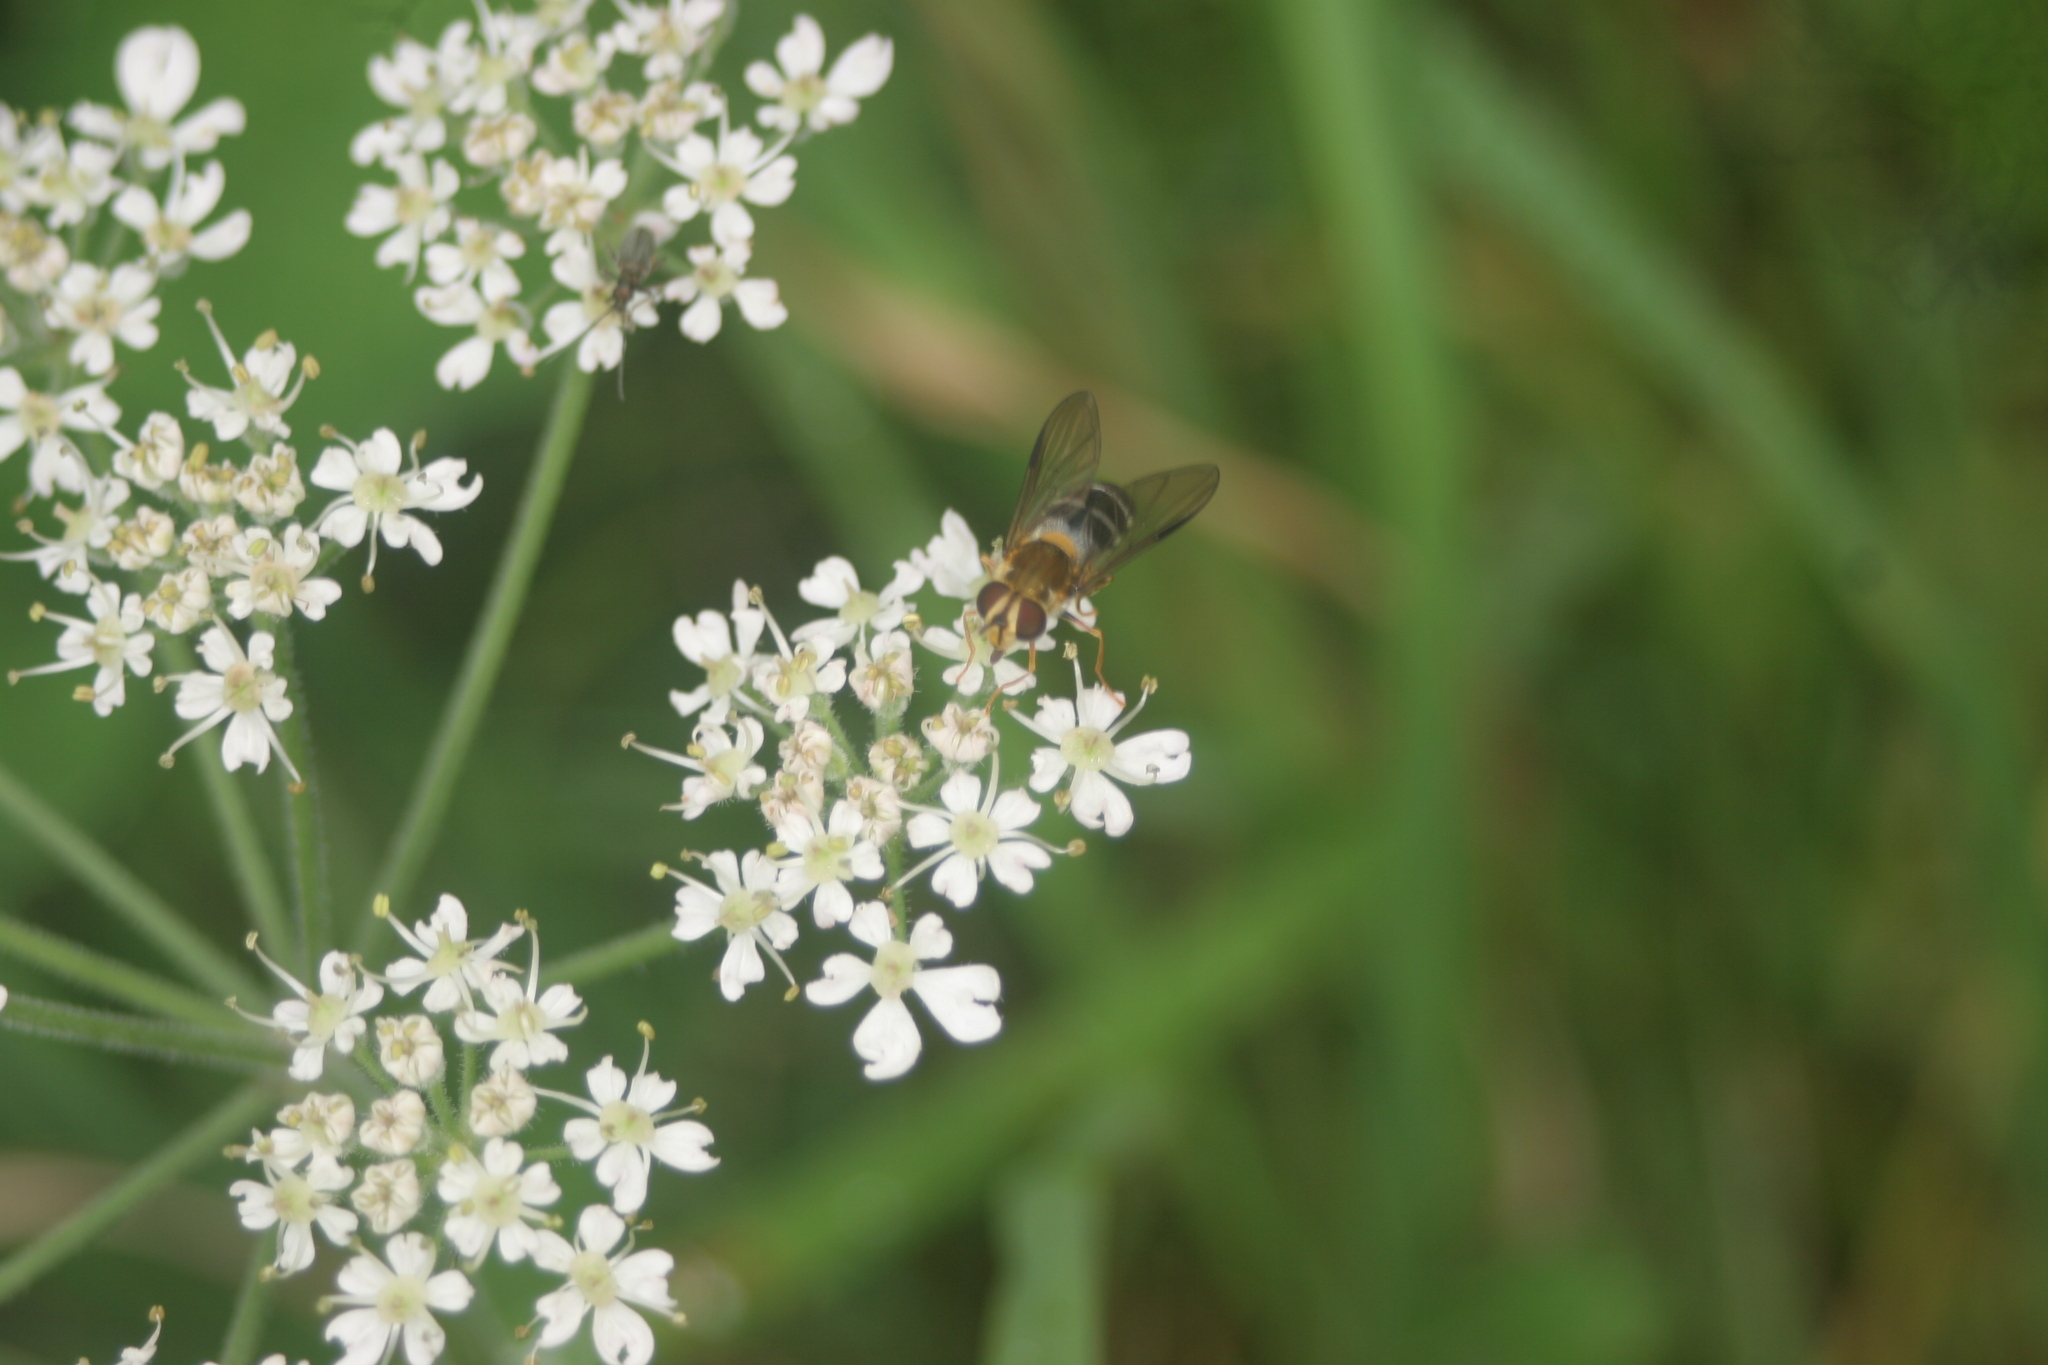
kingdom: Animalia
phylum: Arthropoda
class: Insecta
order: Diptera
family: Syrphidae
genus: Leucozona
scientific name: Leucozona glaucia
